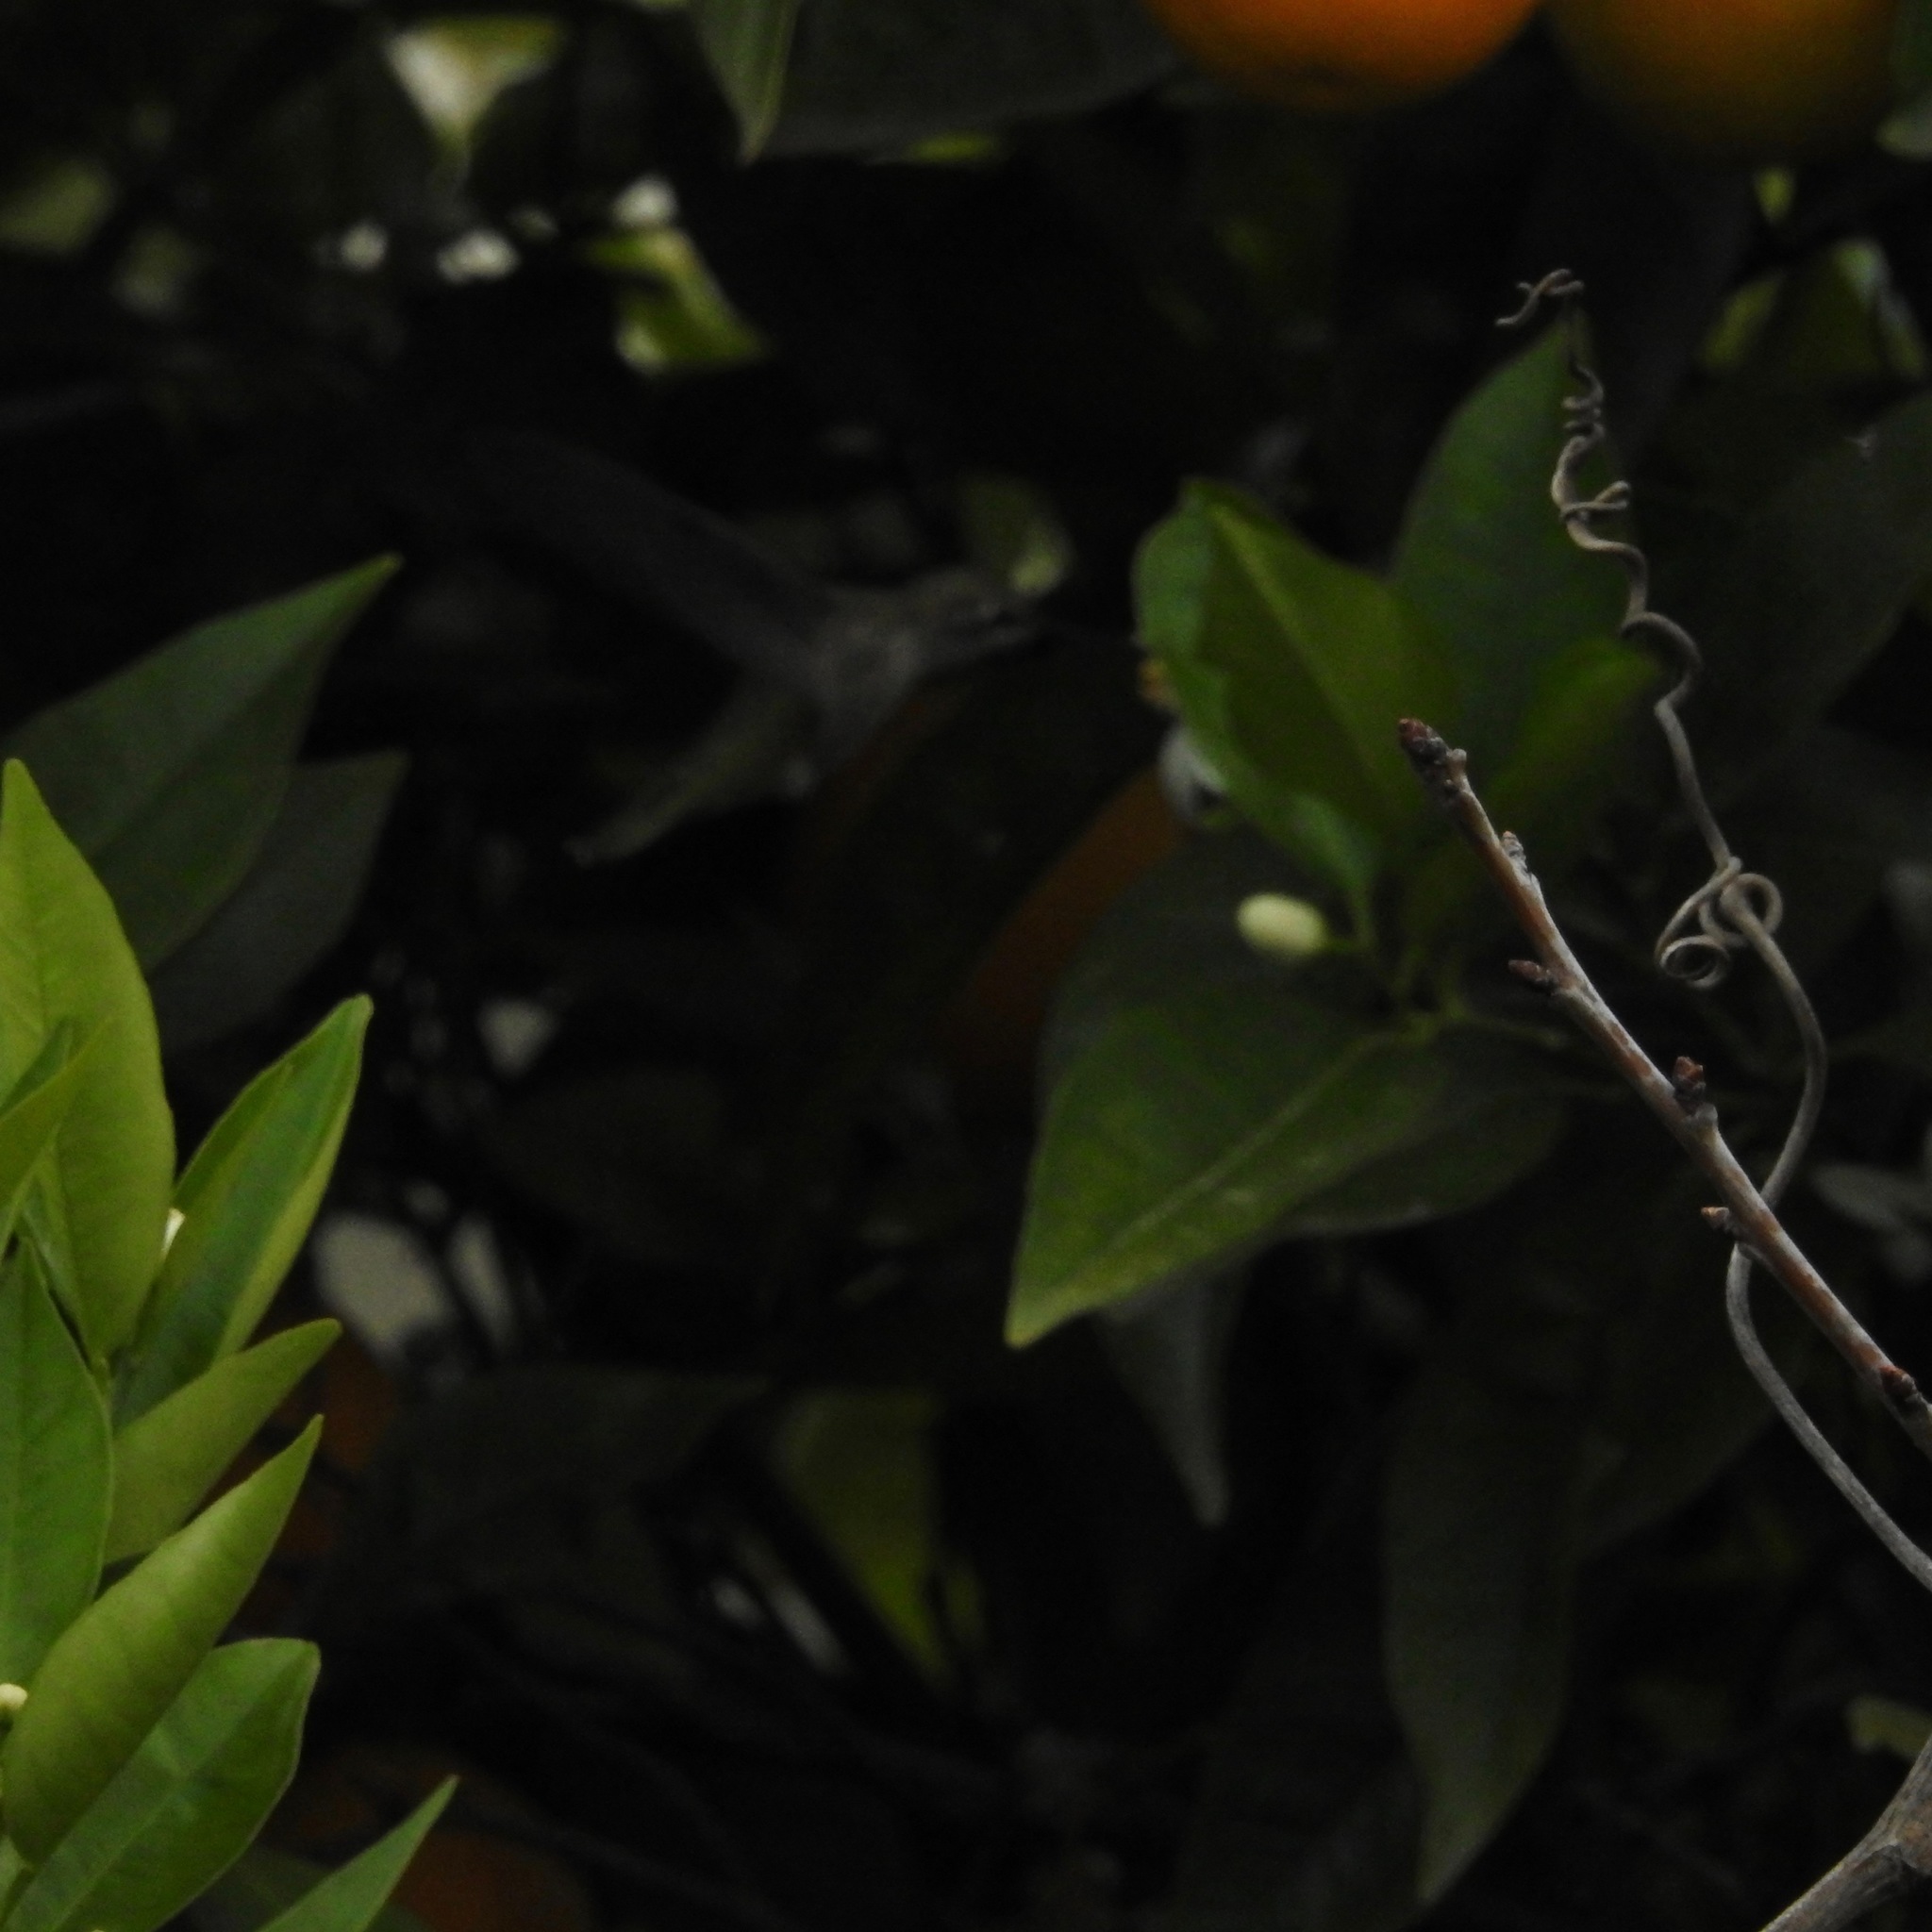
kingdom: Animalia
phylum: Chordata
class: Aves
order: Apodiformes
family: Trochilidae
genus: Calypte
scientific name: Calypte anna
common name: Anna's hummingbird
